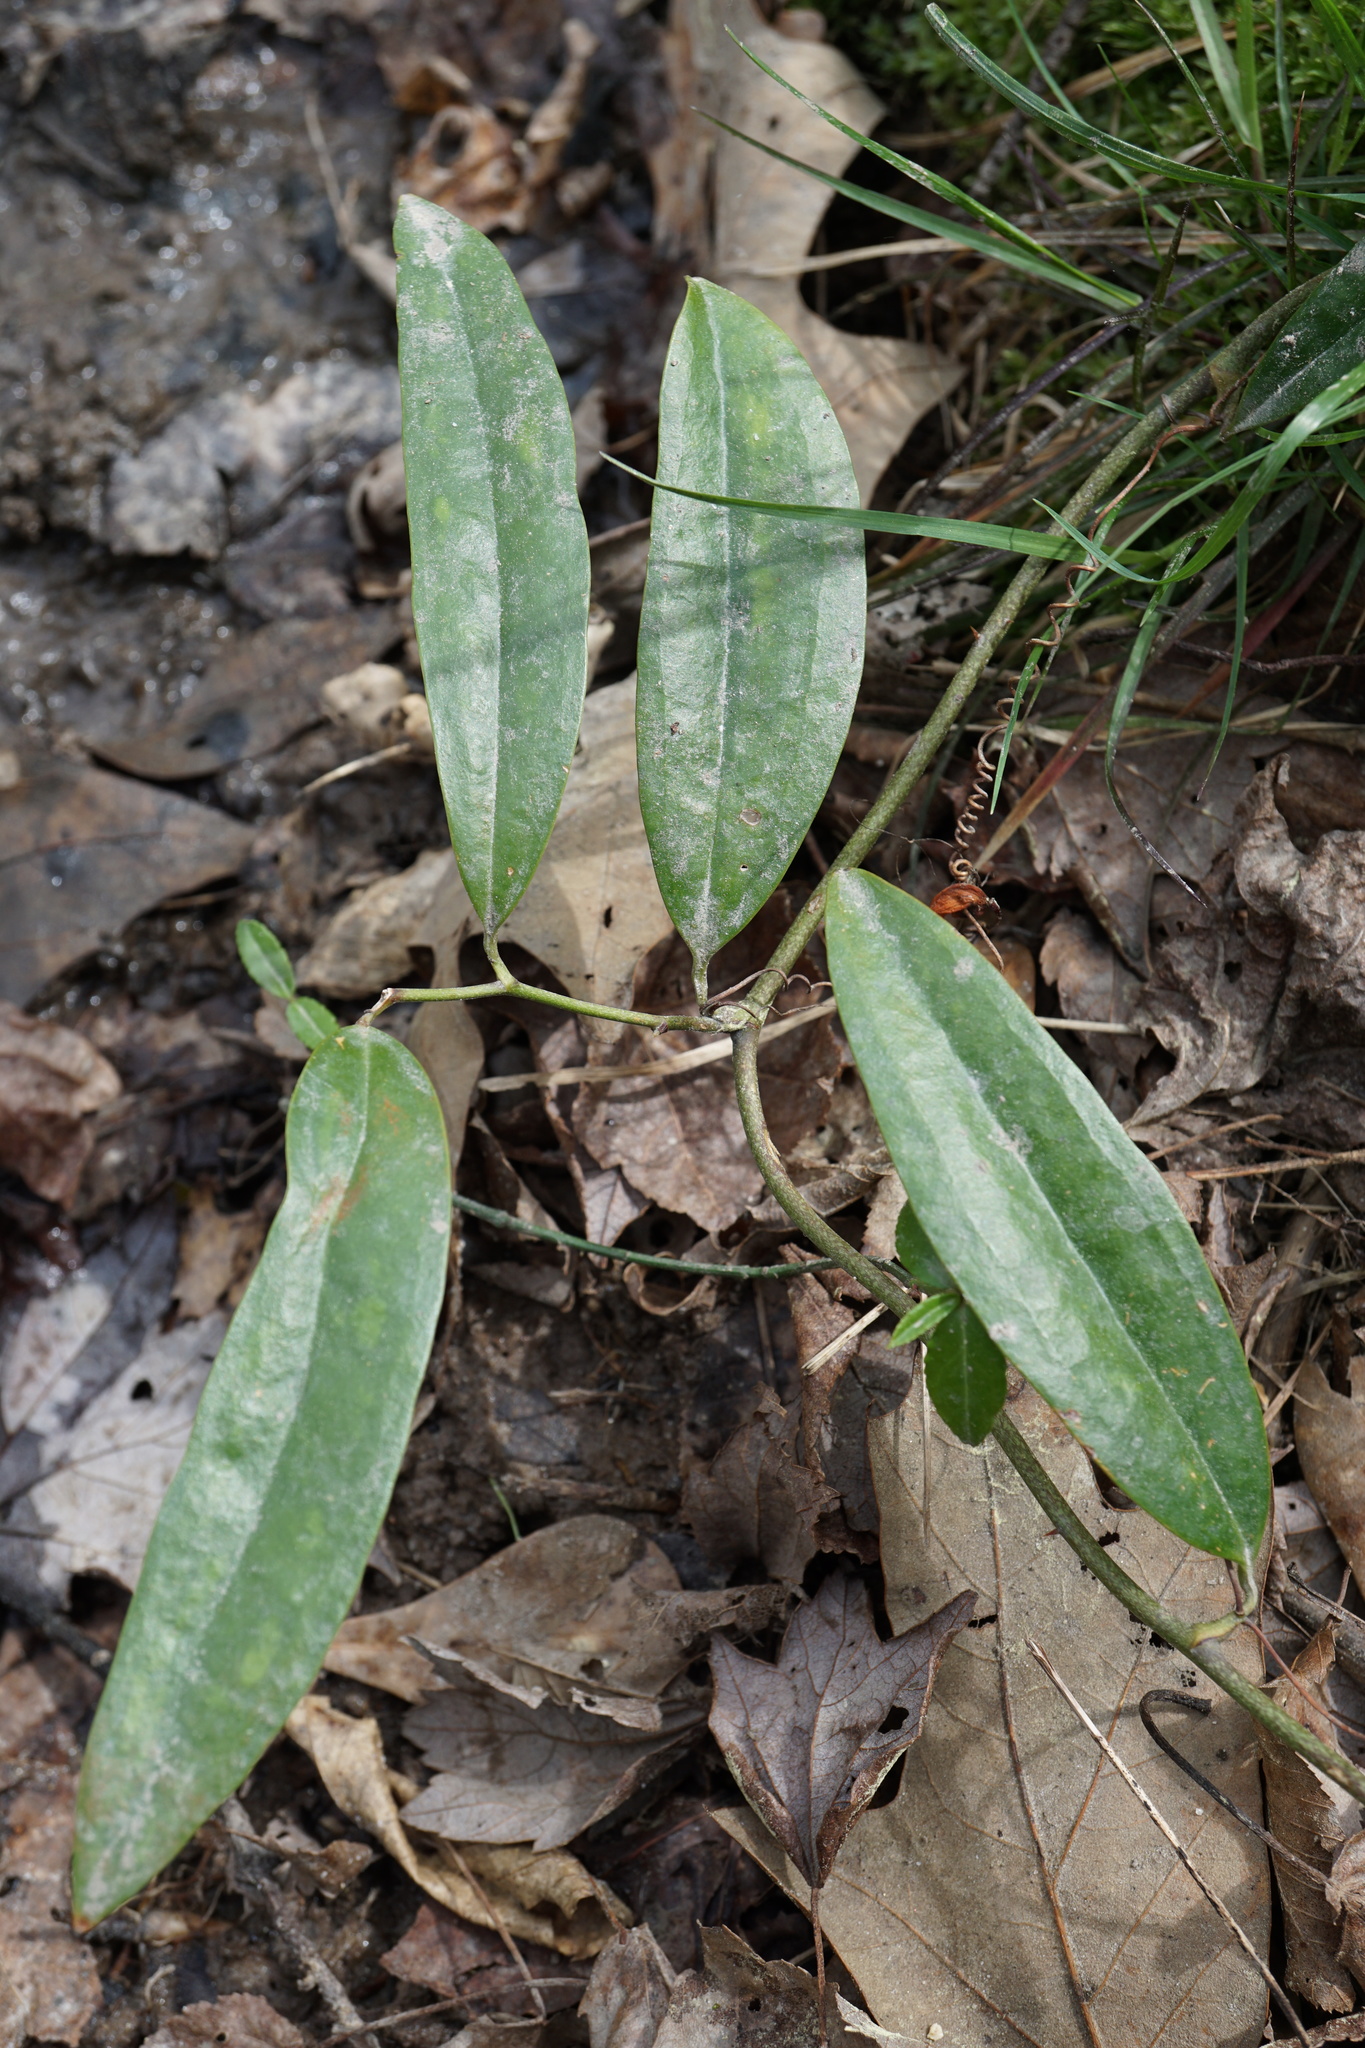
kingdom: Plantae
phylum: Tracheophyta
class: Liliopsida
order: Liliales
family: Smilacaceae
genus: Smilax
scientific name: Smilax laurifolia
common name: Bamboovine
